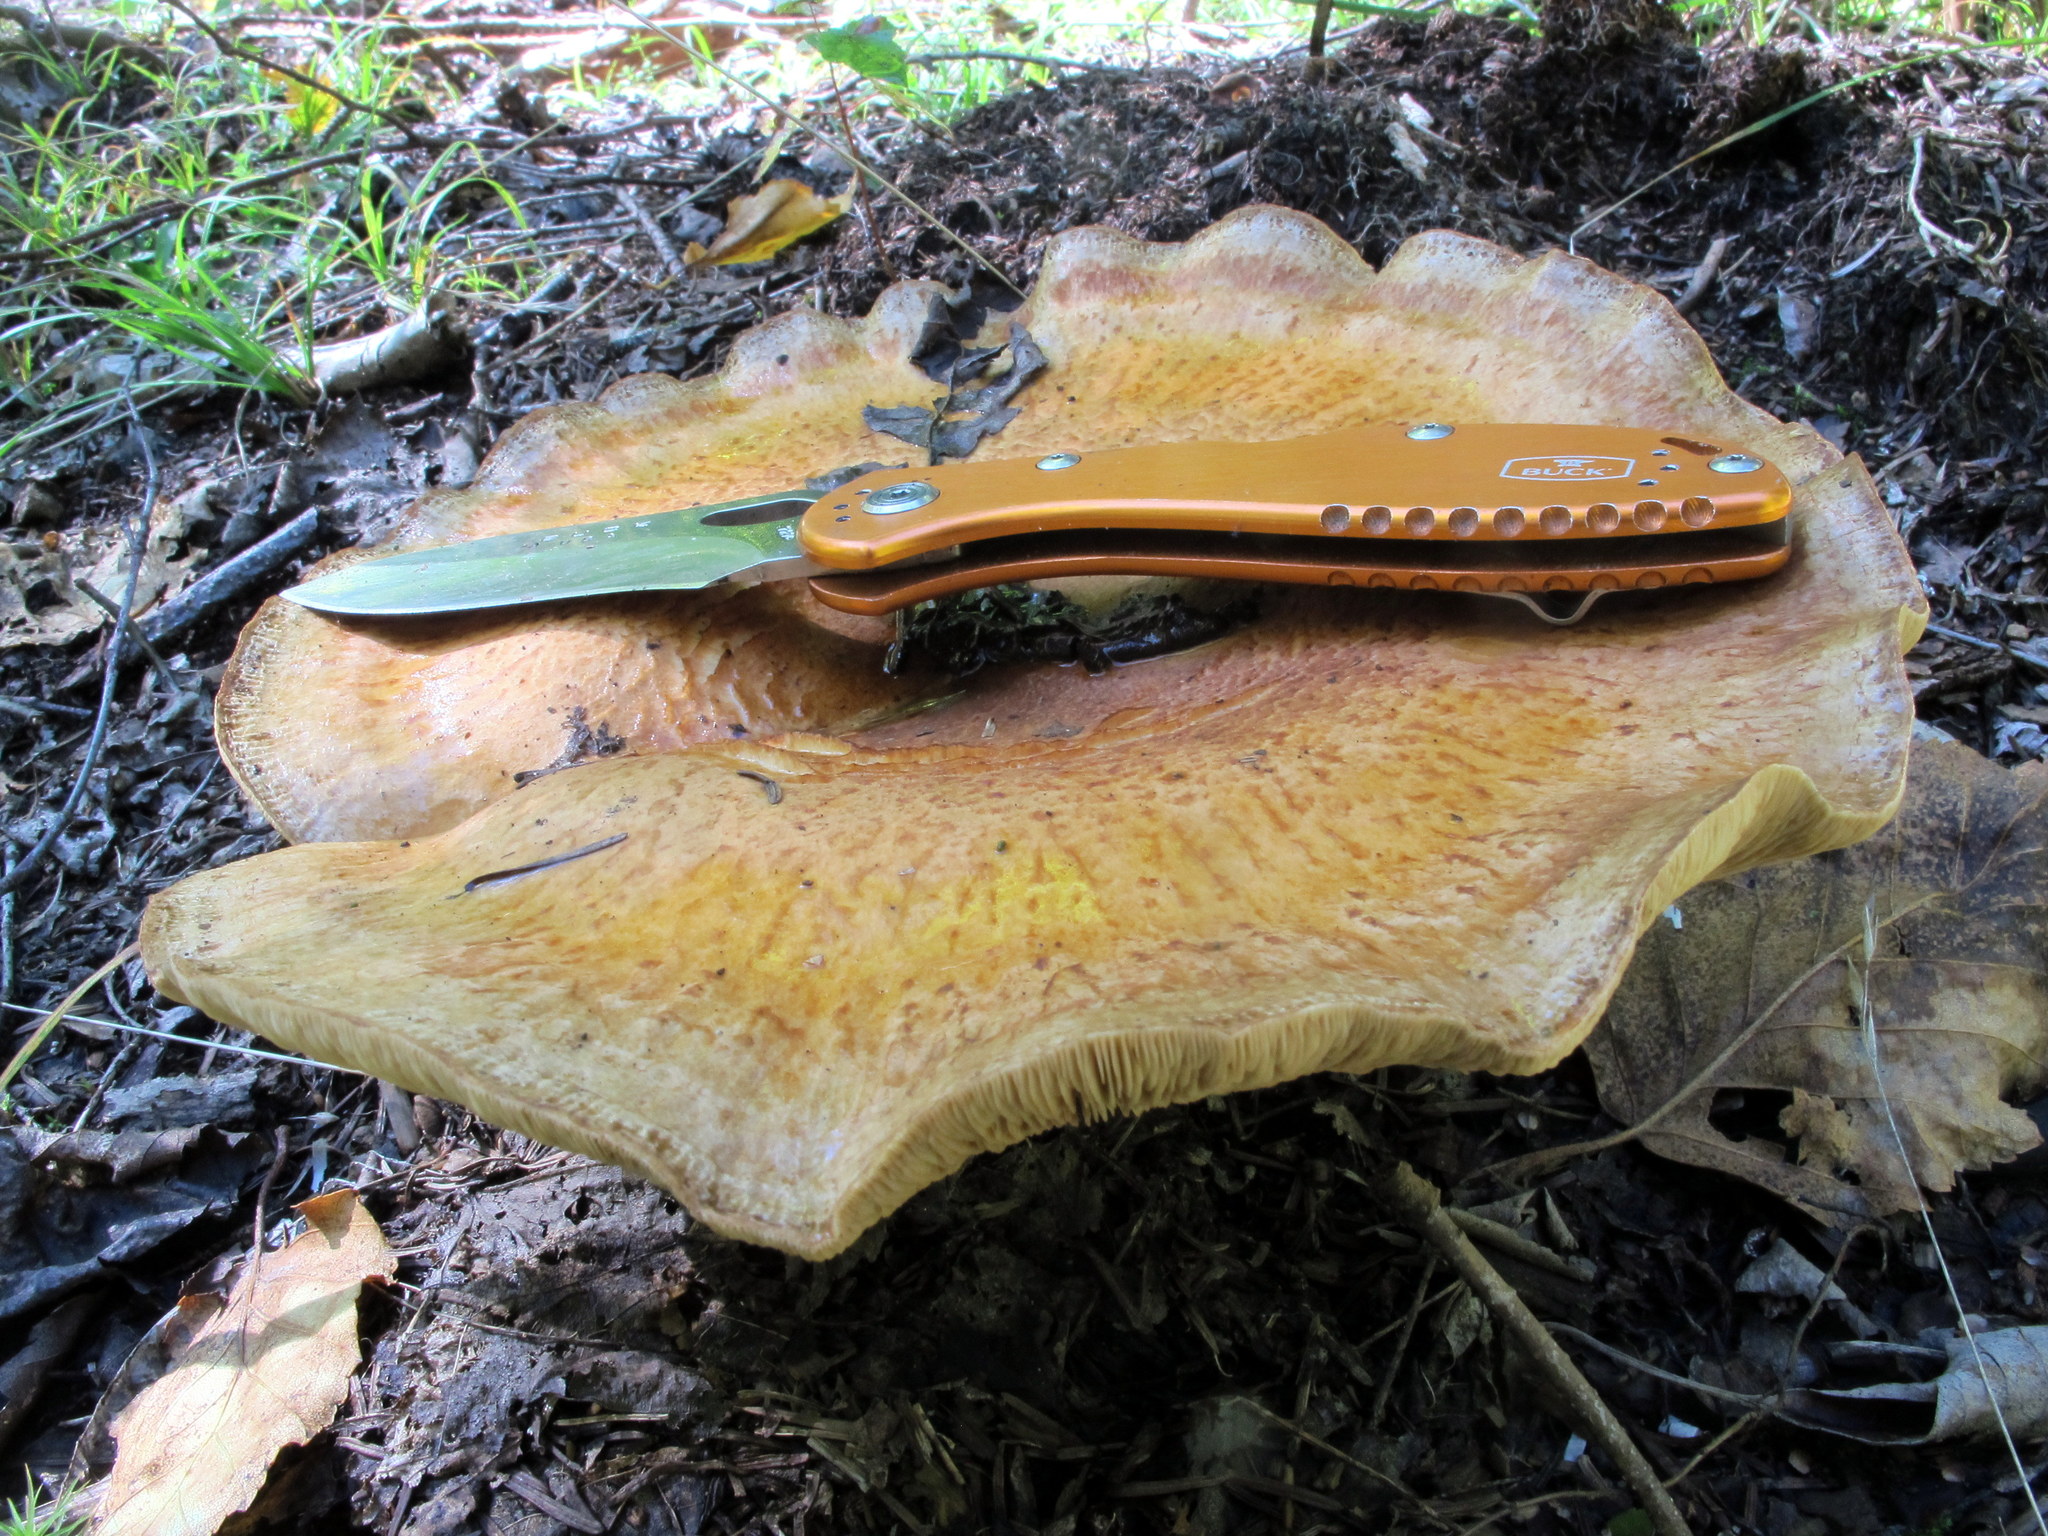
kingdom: Fungi
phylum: Basidiomycota
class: Agaricomycetes
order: Boletales
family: Paxillaceae
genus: Paxillus
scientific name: Paxillus involutus
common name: Brown roll rim
